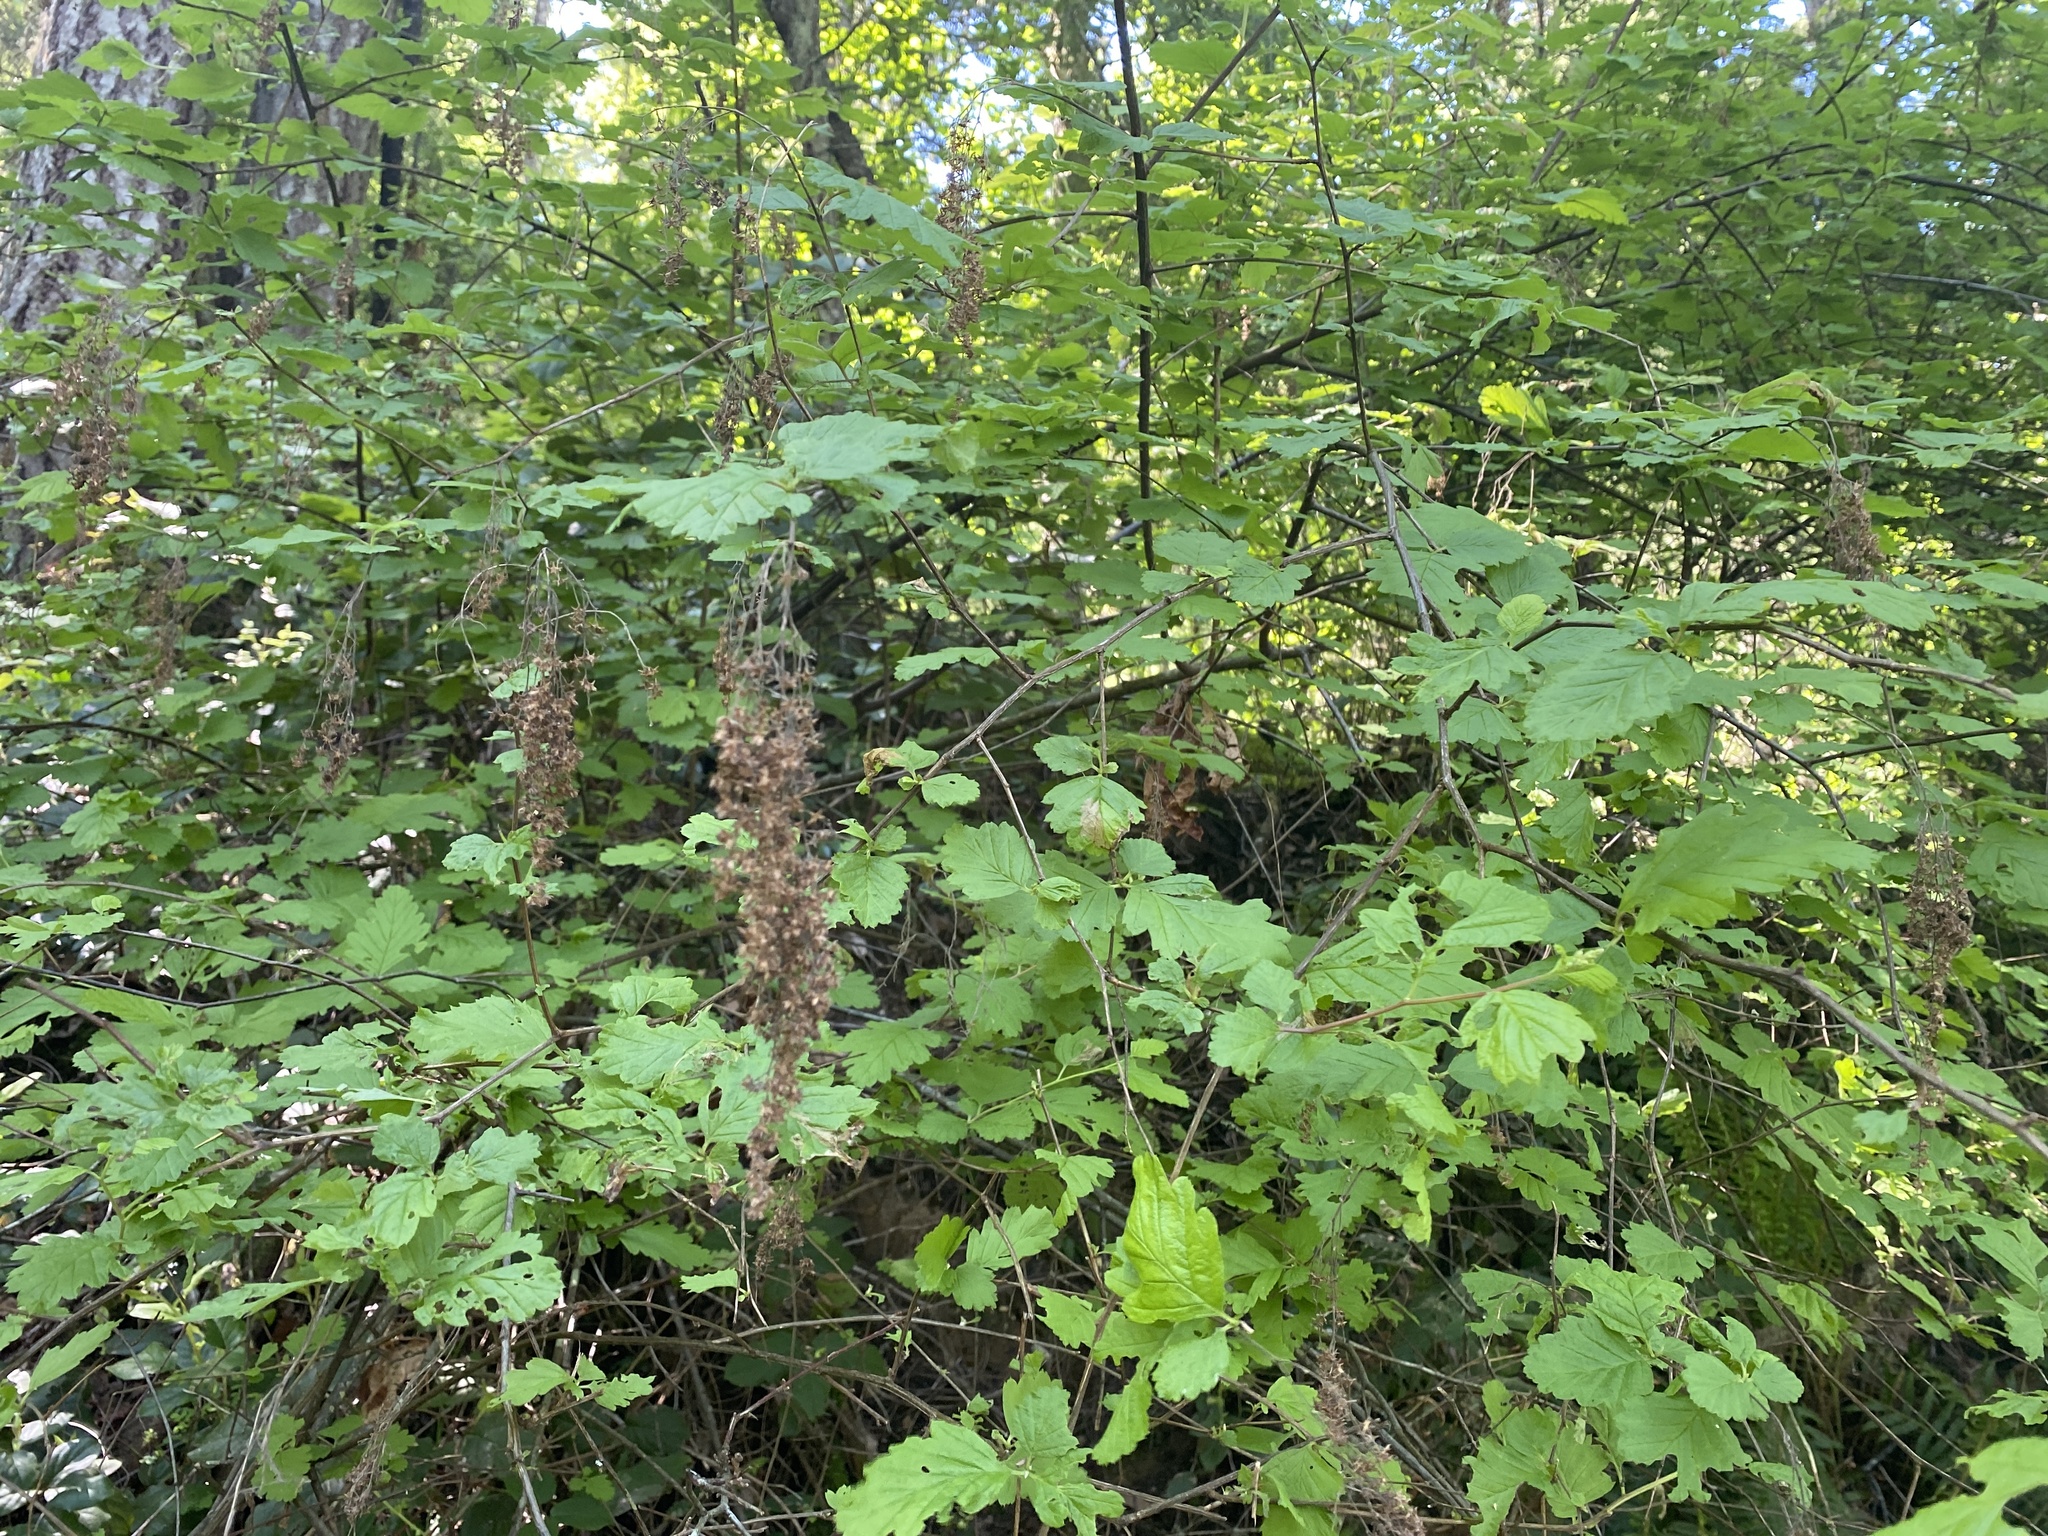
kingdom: Plantae
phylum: Tracheophyta
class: Magnoliopsida
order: Rosales
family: Rosaceae
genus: Holodiscus
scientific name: Holodiscus discolor
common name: Oceanspray
